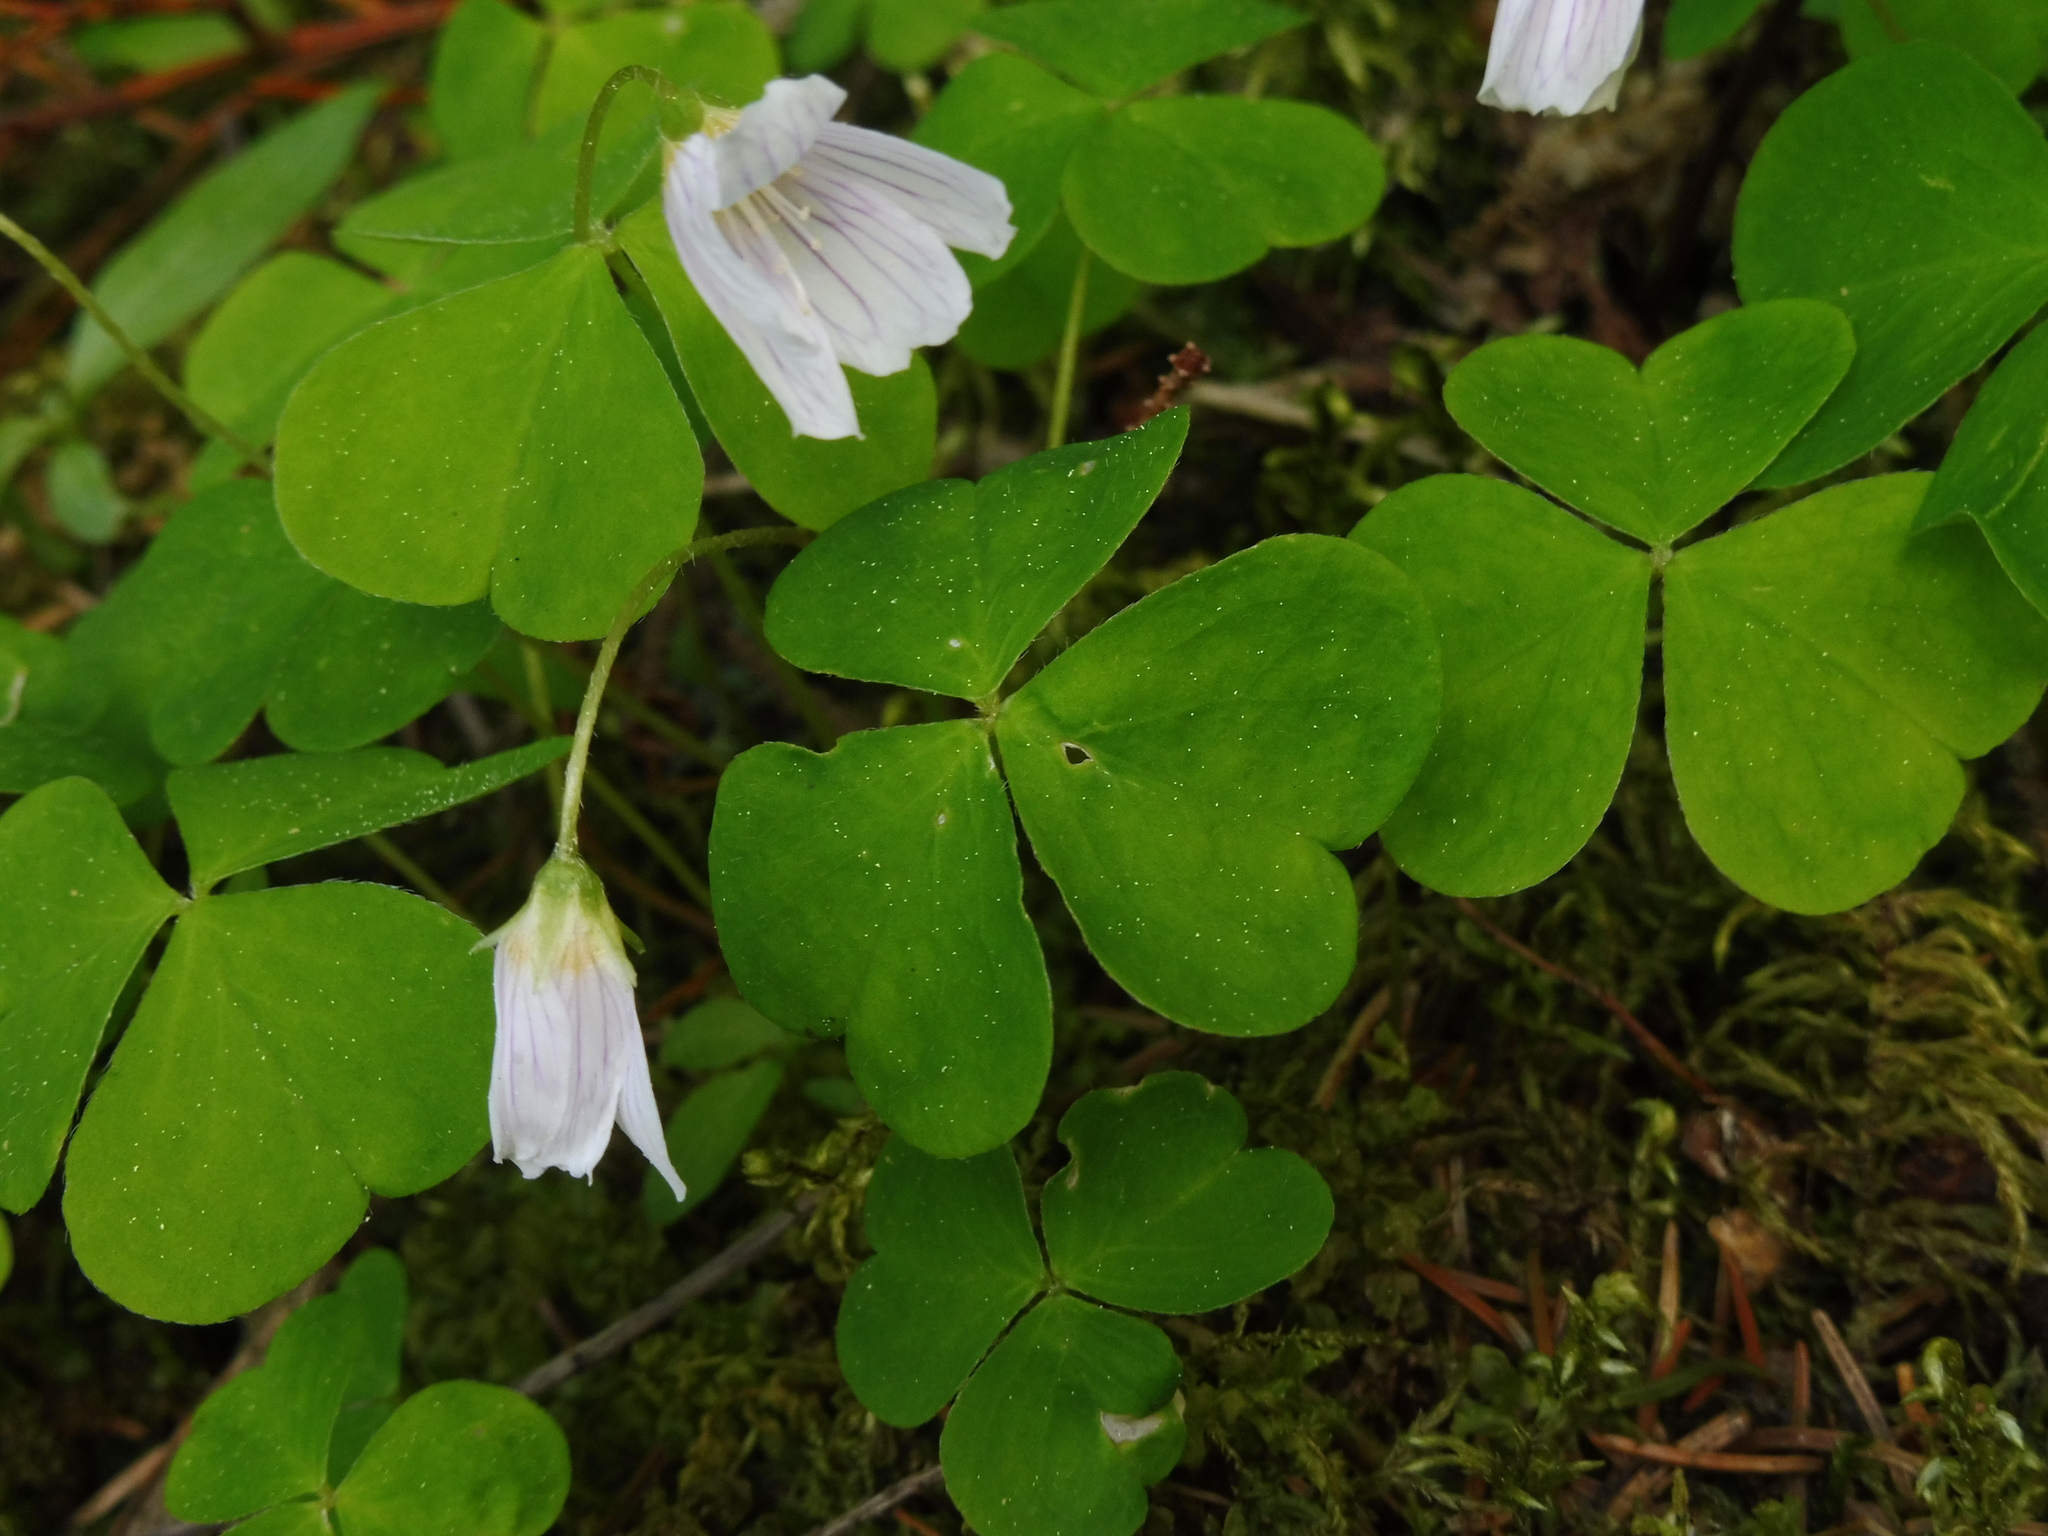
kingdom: Plantae
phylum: Tracheophyta
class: Magnoliopsida
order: Oxalidales
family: Oxalidaceae
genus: Oxalis
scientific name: Oxalis acetosella
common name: Wood-sorrel
